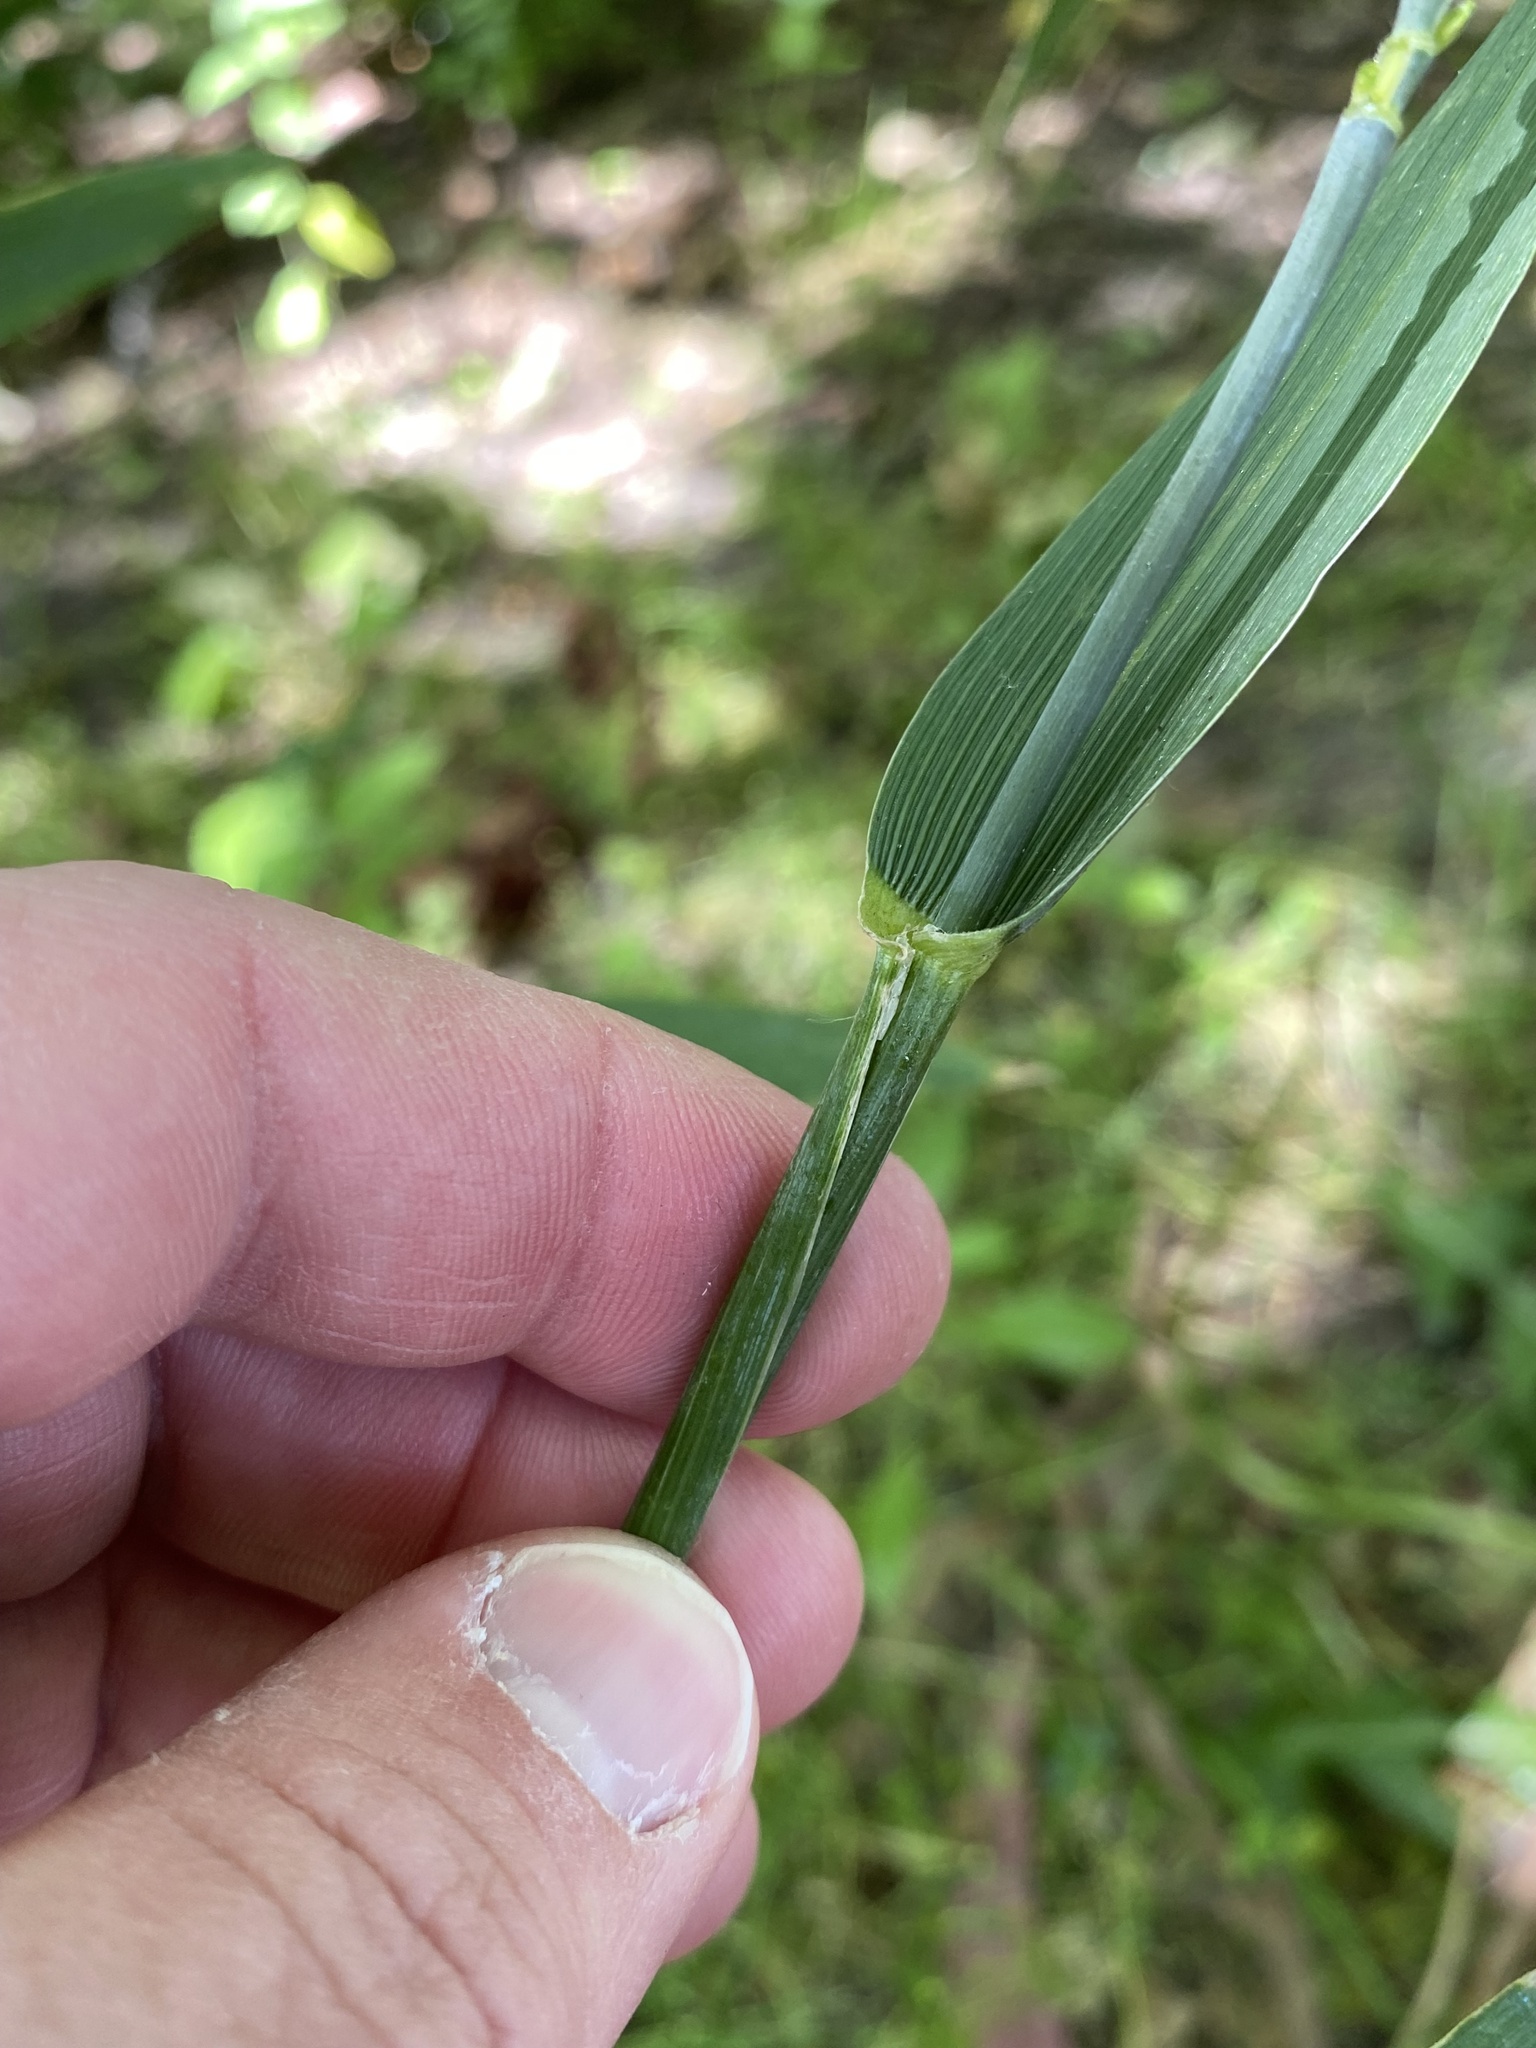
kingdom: Plantae
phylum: Tracheophyta
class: Liliopsida
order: Poales
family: Poaceae
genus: Triticum
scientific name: Triticum aestivum
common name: Common wheat
